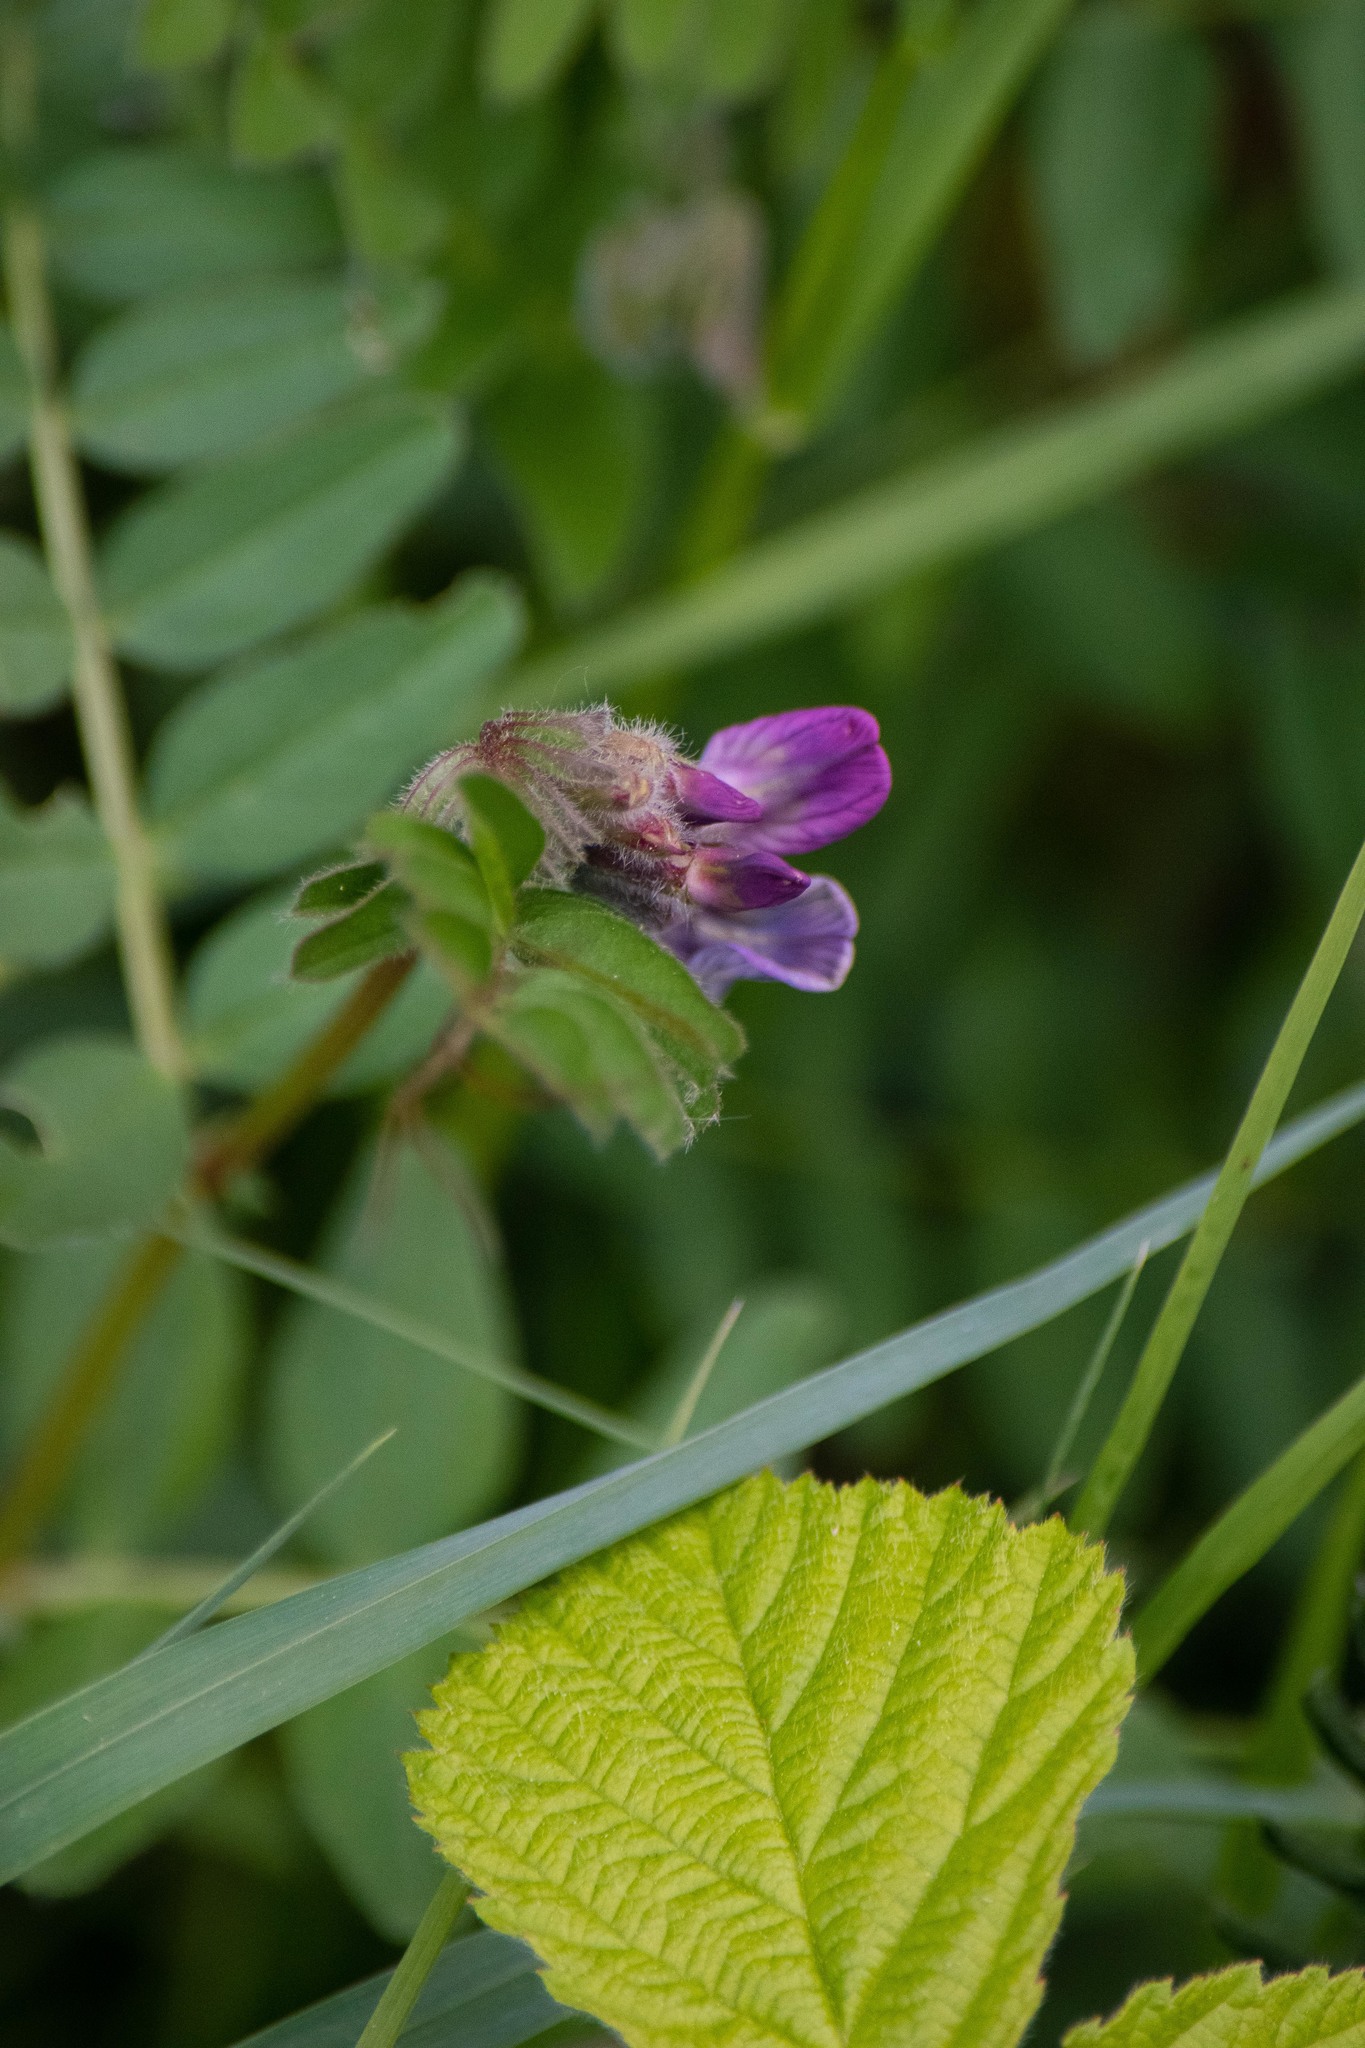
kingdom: Plantae
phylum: Tracheophyta
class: Magnoliopsida
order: Fabales
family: Fabaceae
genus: Vicia
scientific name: Vicia sepium
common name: Bush vetch
